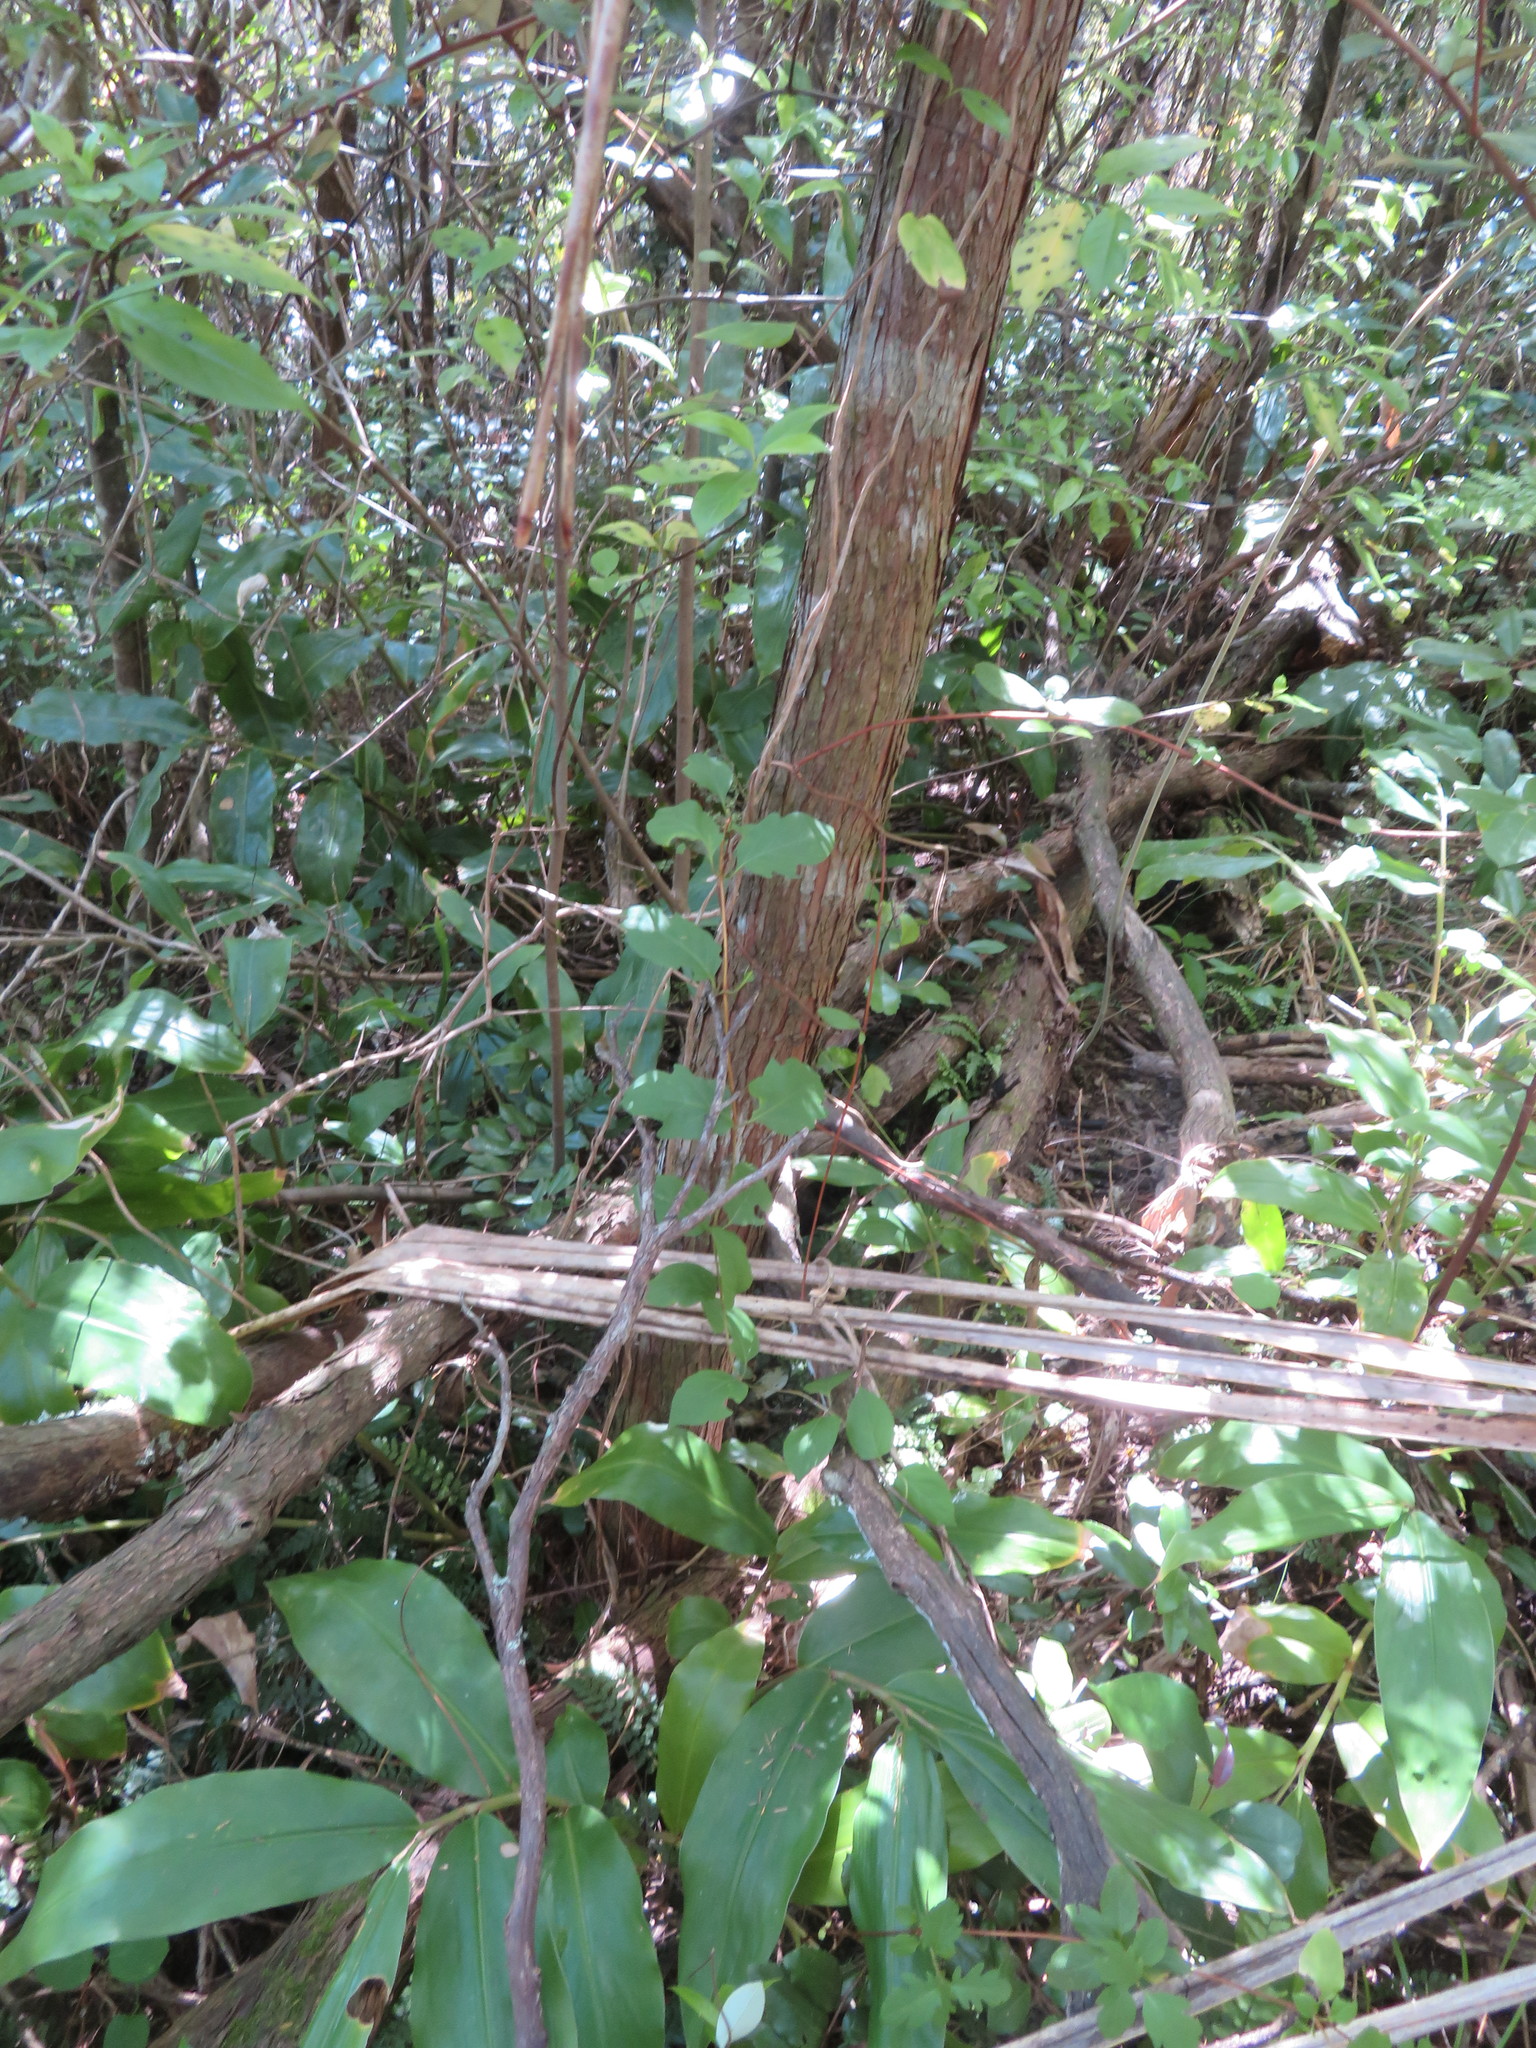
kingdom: Plantae
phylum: Tracheophyta
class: Liliopsida
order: Zingiberales
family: Zingiberaceae
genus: Hedychium
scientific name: Hedychium gardnerianum
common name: Himalayan ginger
